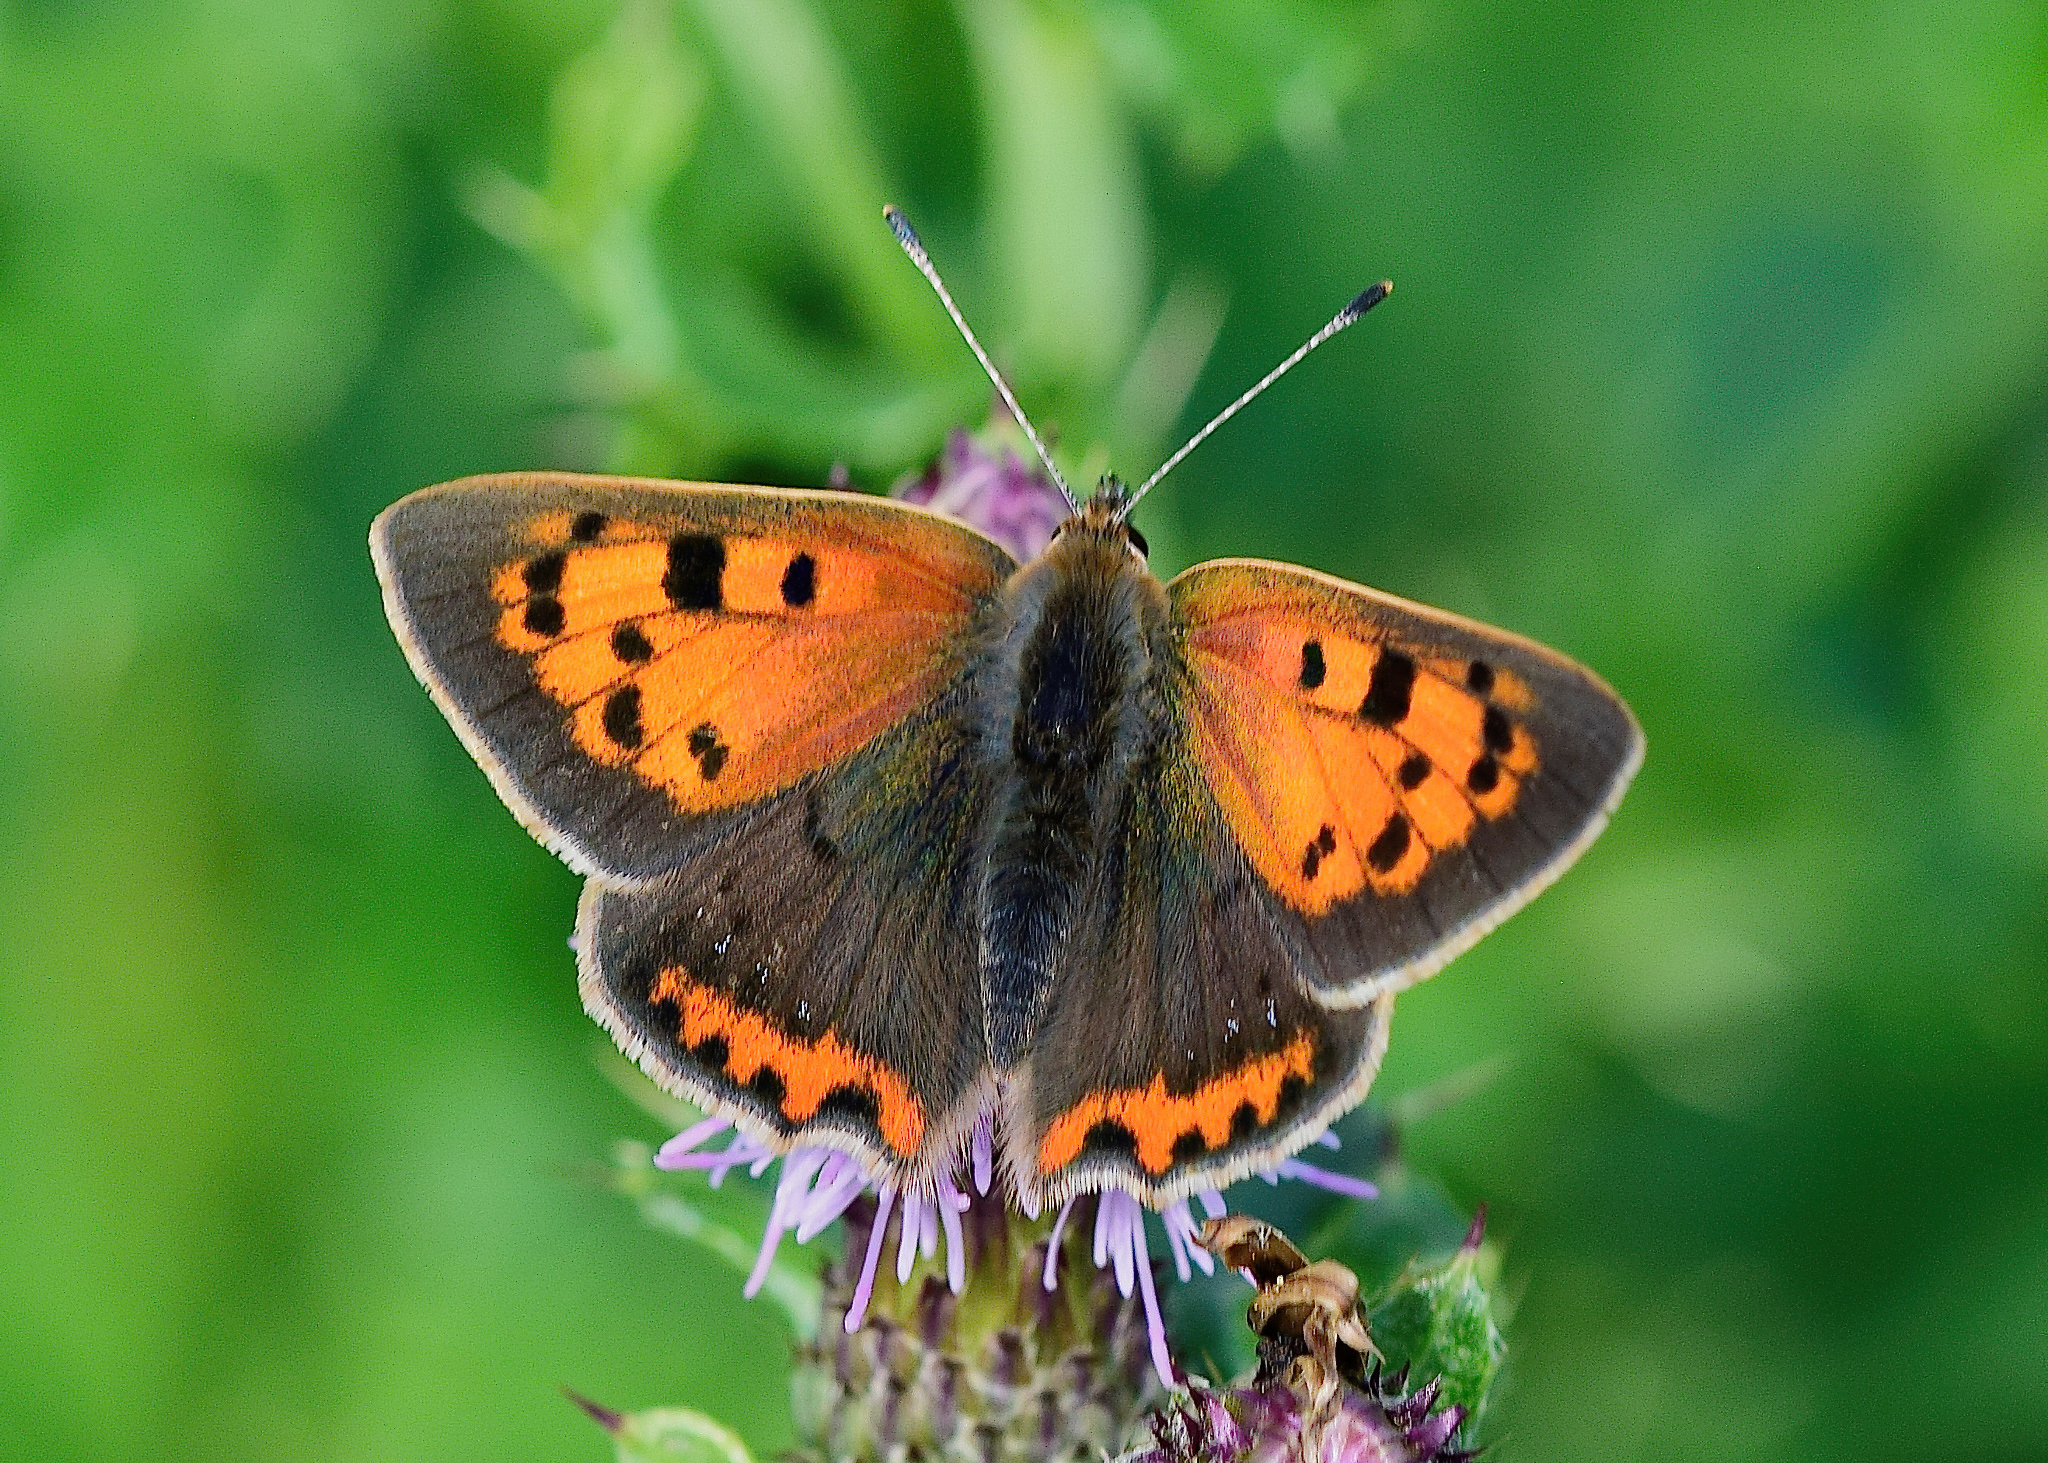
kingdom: Animalia
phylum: Arthropoda
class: Insecta
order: Lepidoptera
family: Lycaenidae
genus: Lycaena
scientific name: Lycaena phlaeas
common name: Small copper
